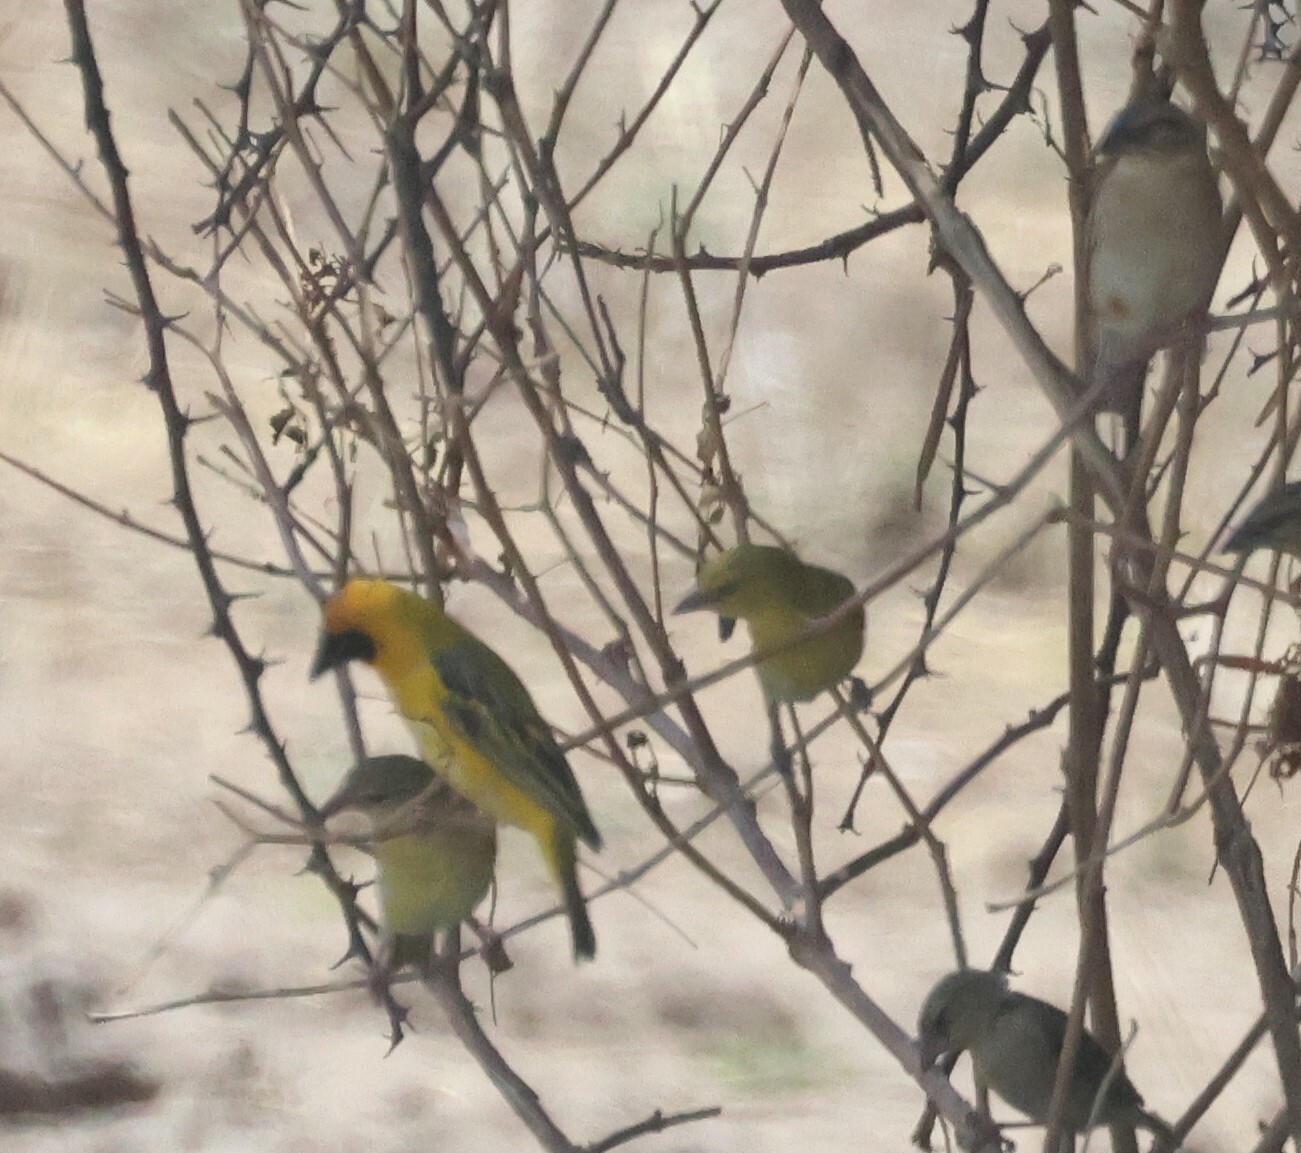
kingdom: Animalia
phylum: Chordata
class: Aves
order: Passeriformes
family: Ploceidae
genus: Ploceus
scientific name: Ploceus velatus
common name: Southern masked weaver
